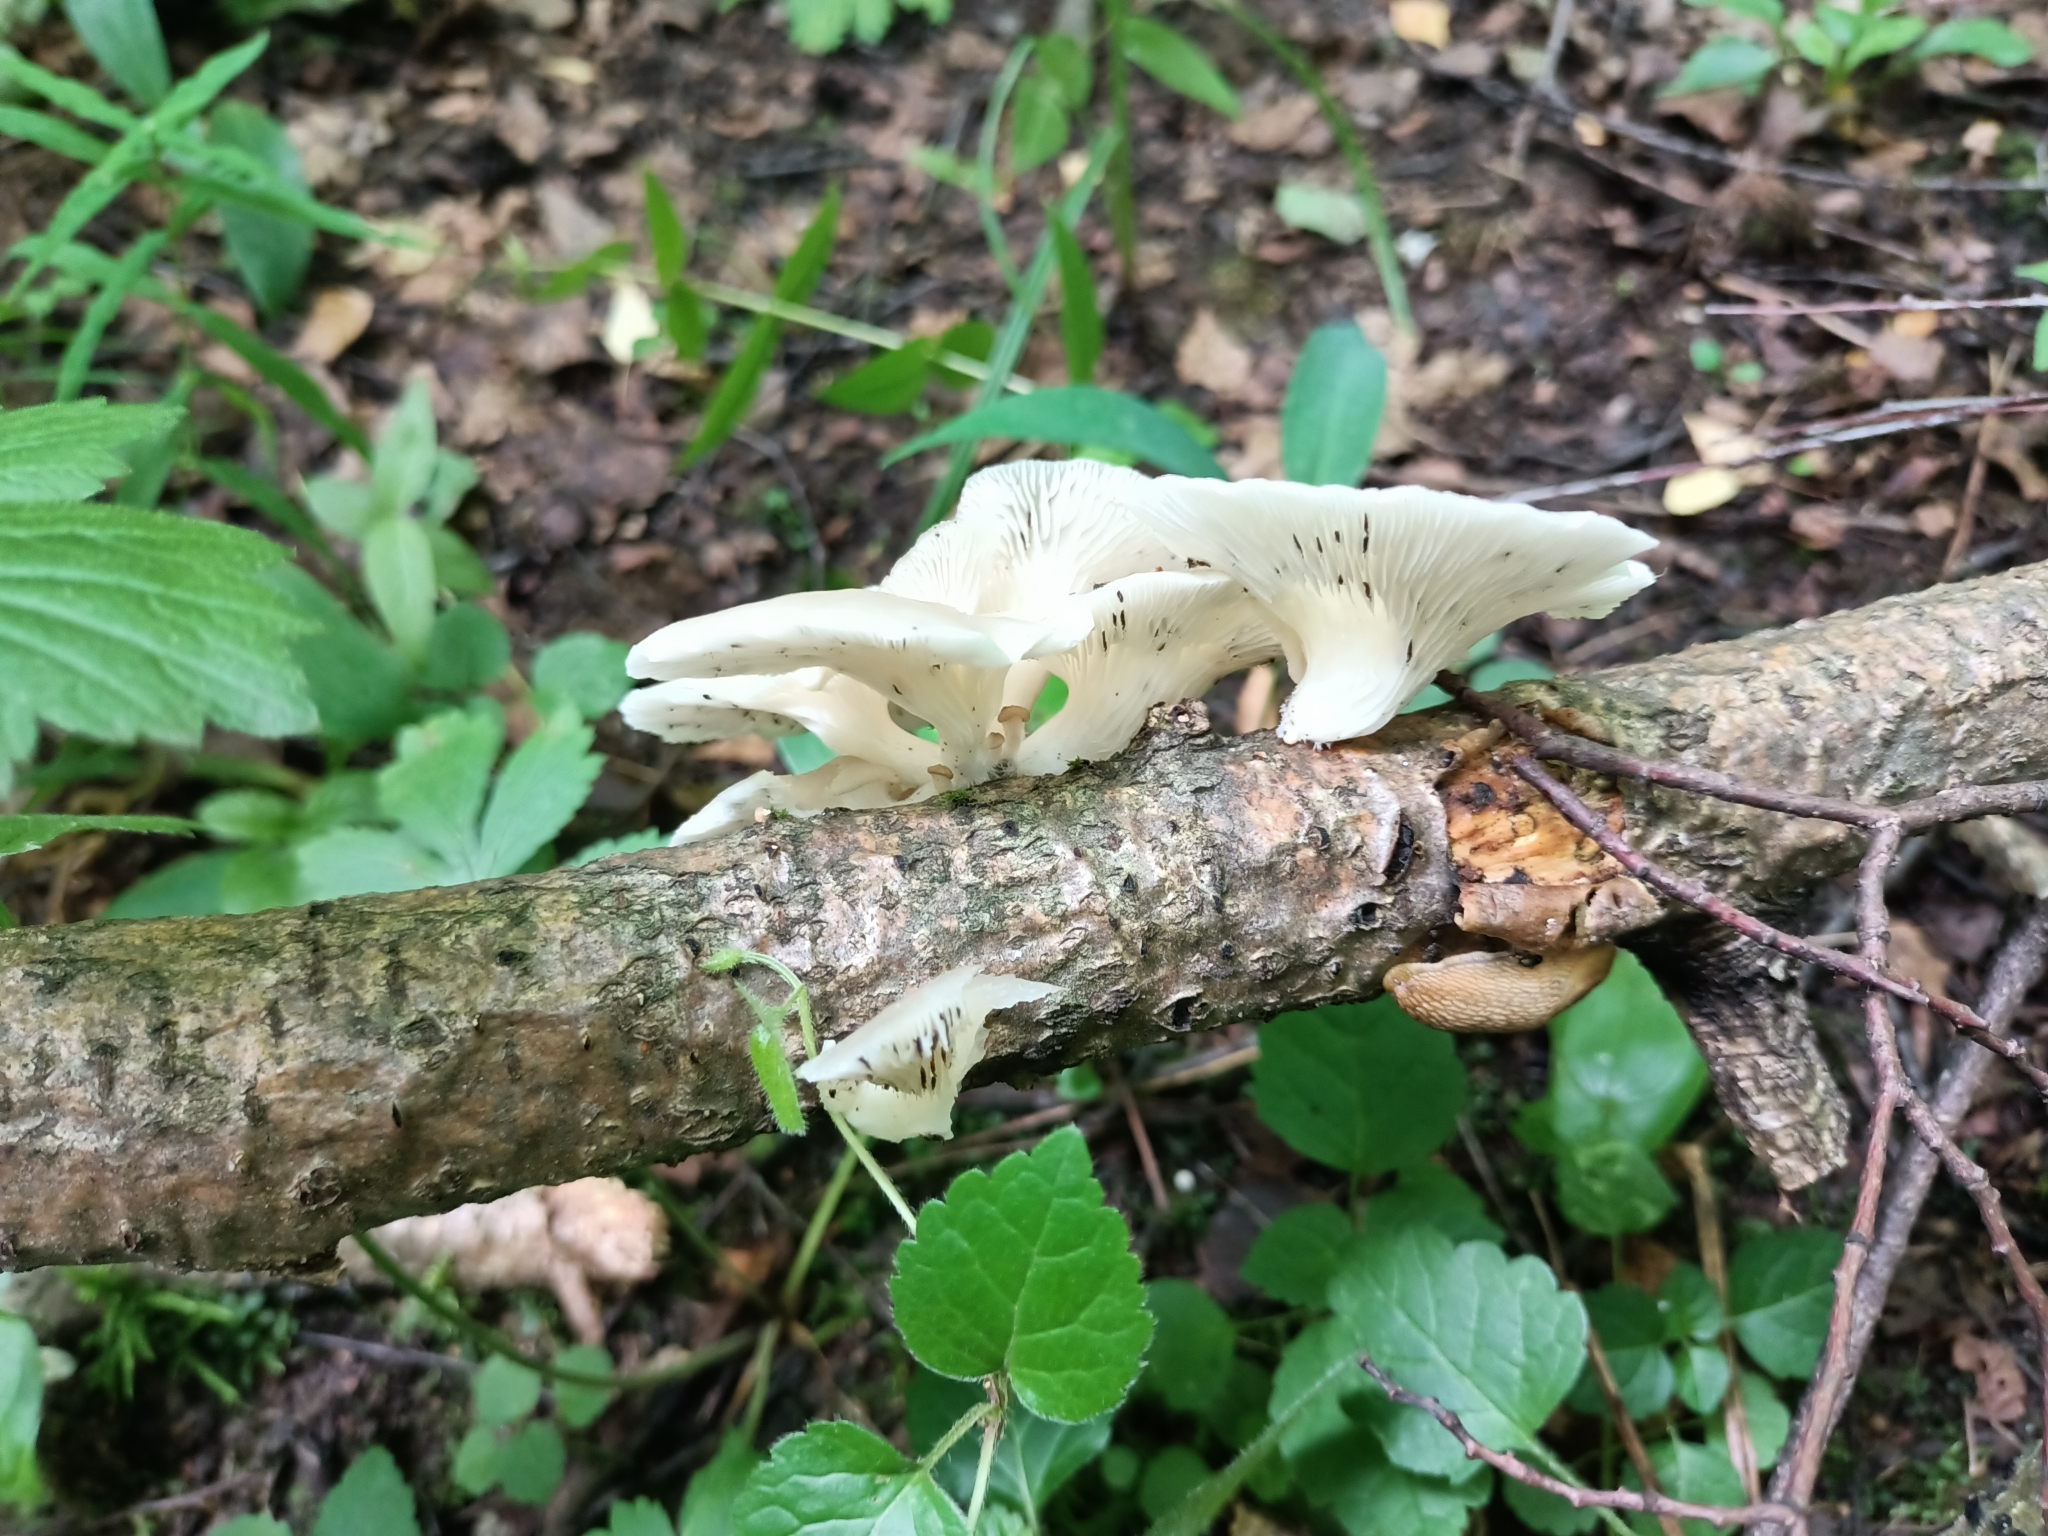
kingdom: Fungi
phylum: Basidiomycota
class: Agaricomycetes
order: Agaricales
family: Pleurotaceae
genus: Pleurotus
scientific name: Pleurotus pulmonarius
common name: Pale oyster
